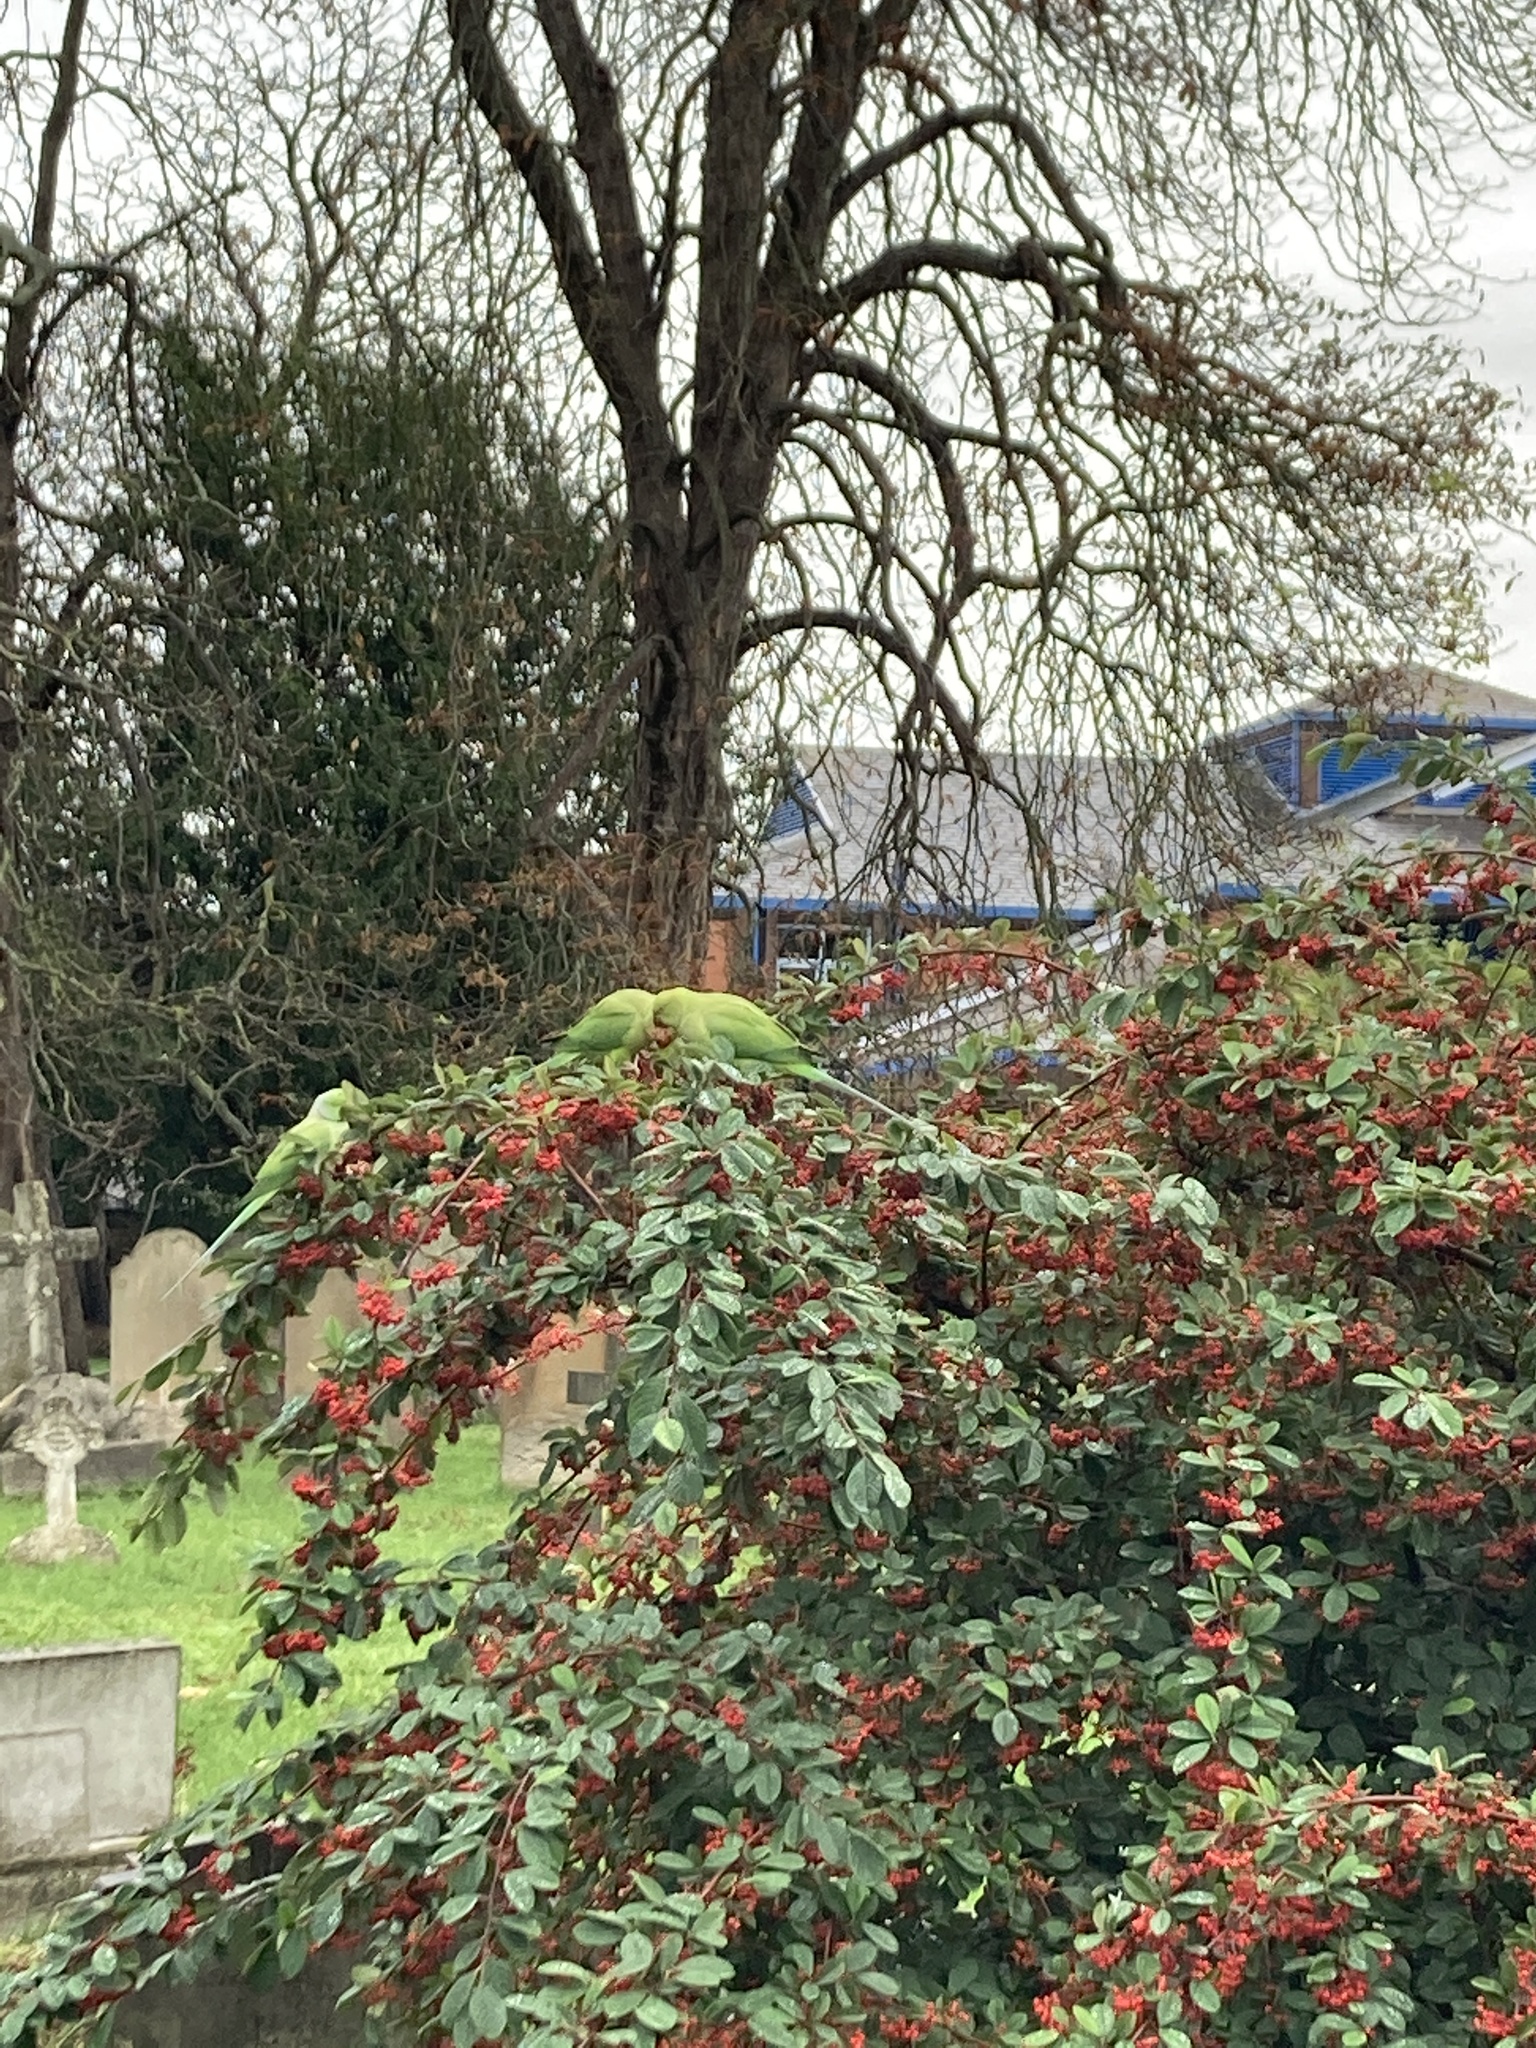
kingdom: Animalia
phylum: Chordata
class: Aves
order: Psittaciformes
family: Psittacidae
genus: Psittacula
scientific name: Psittacula krameri
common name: Rose-ringed parakeet
